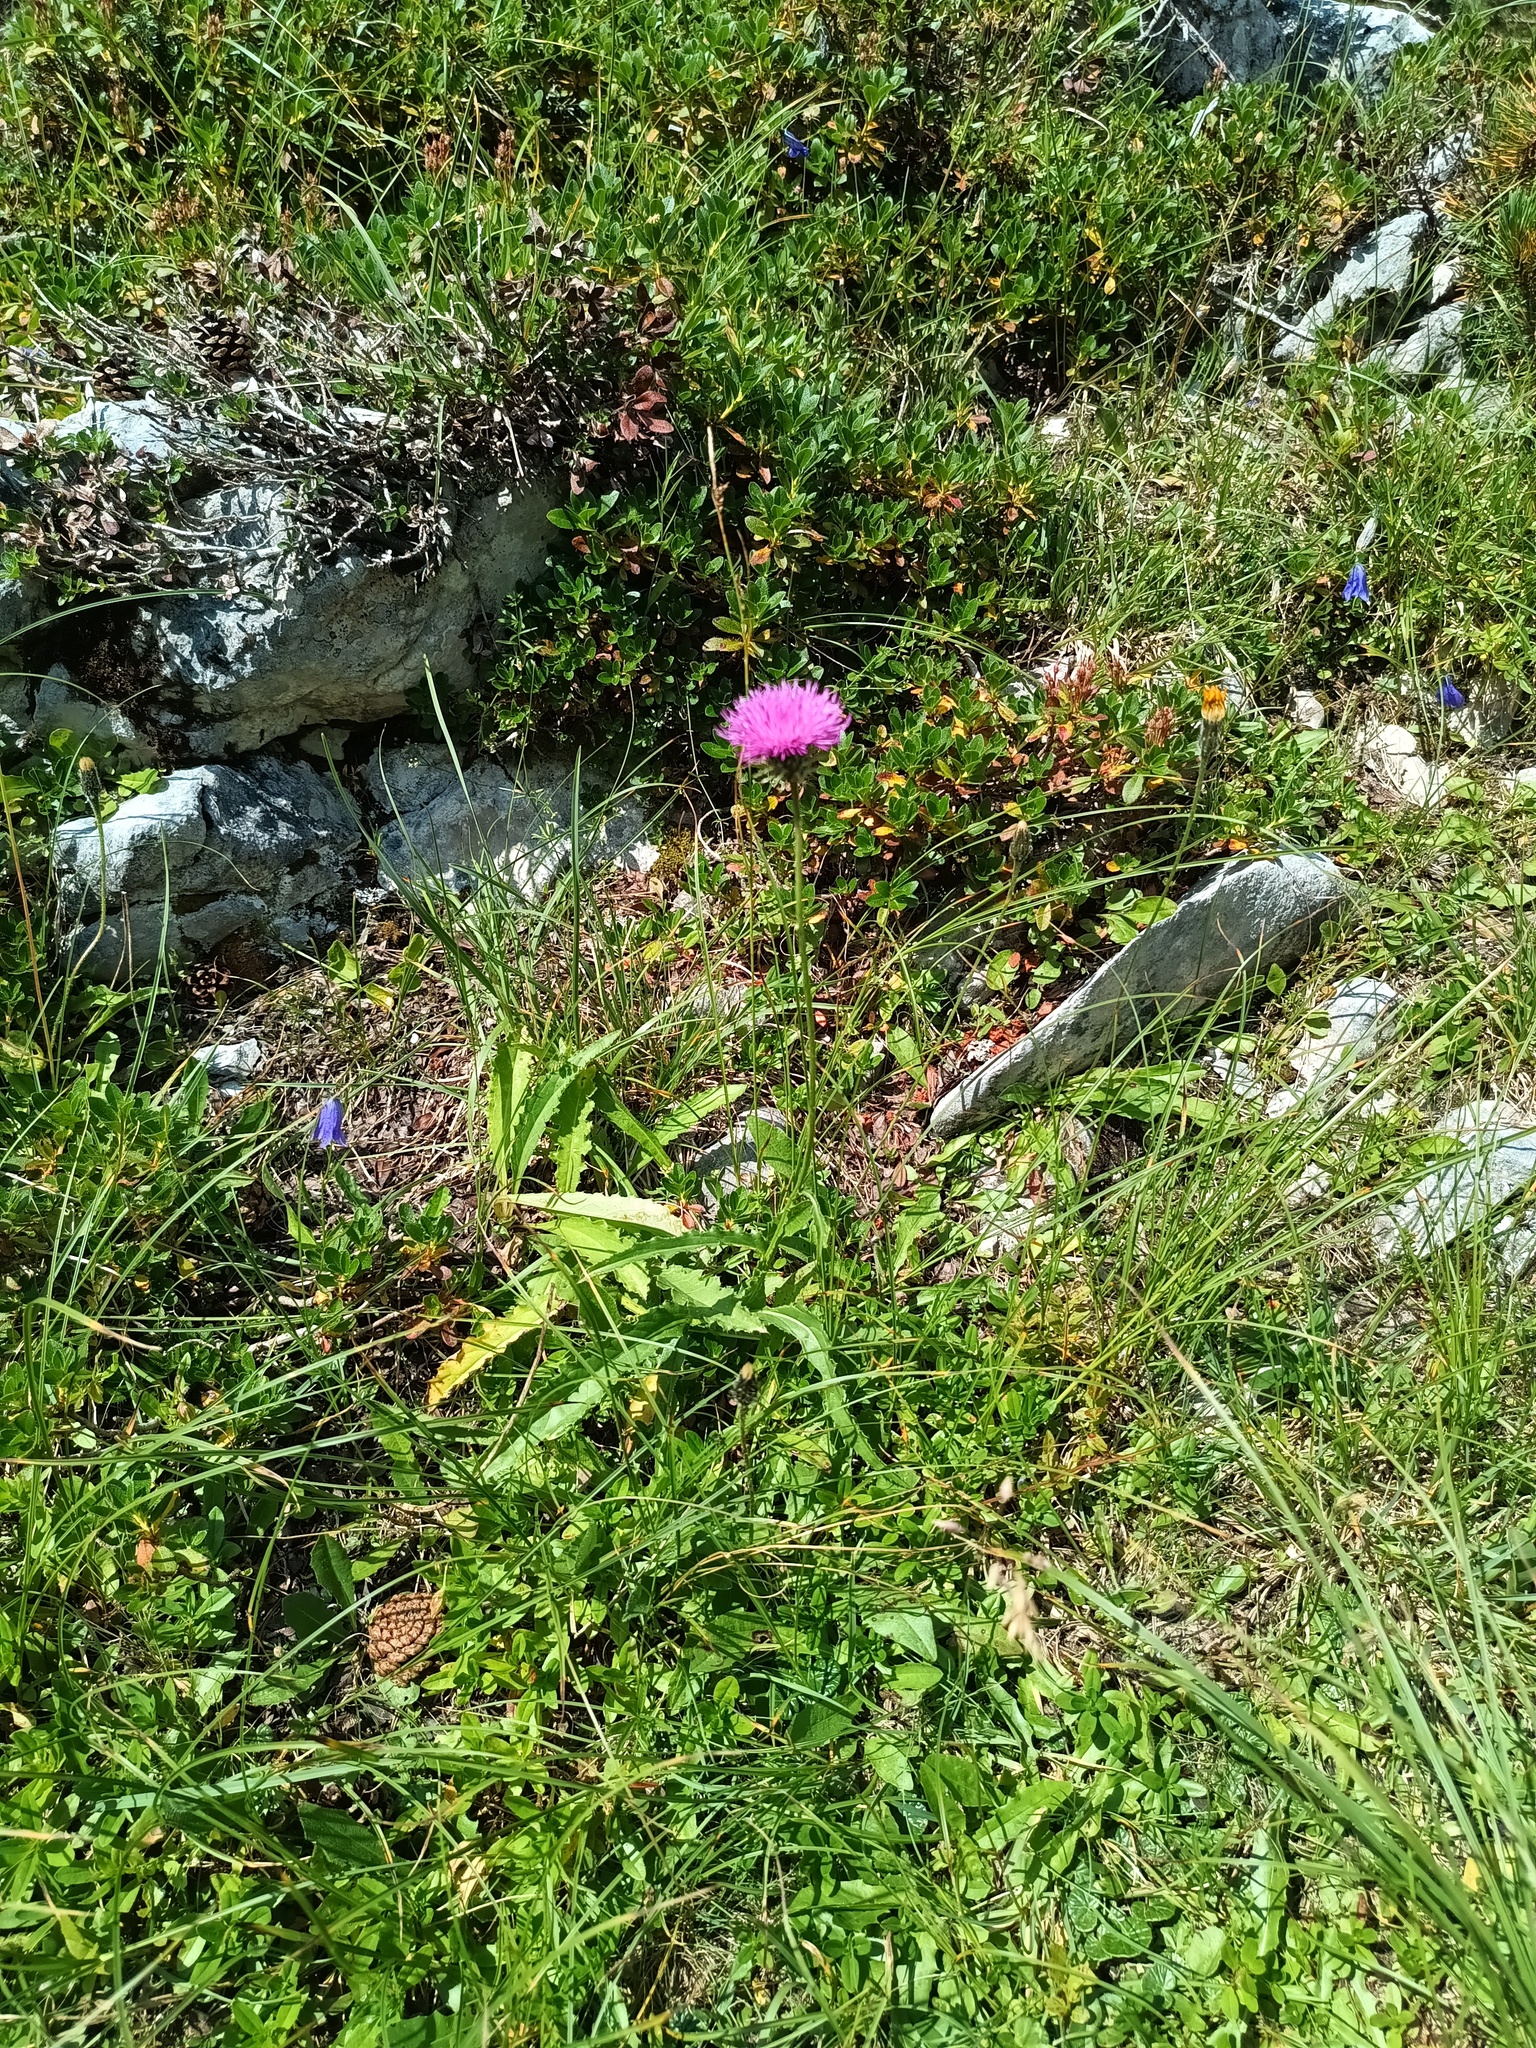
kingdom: Plantae
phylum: Tracheophyta
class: Magnoliopsida
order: Asterales
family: Asteraceae
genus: Carduus
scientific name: Carduus defloratus
